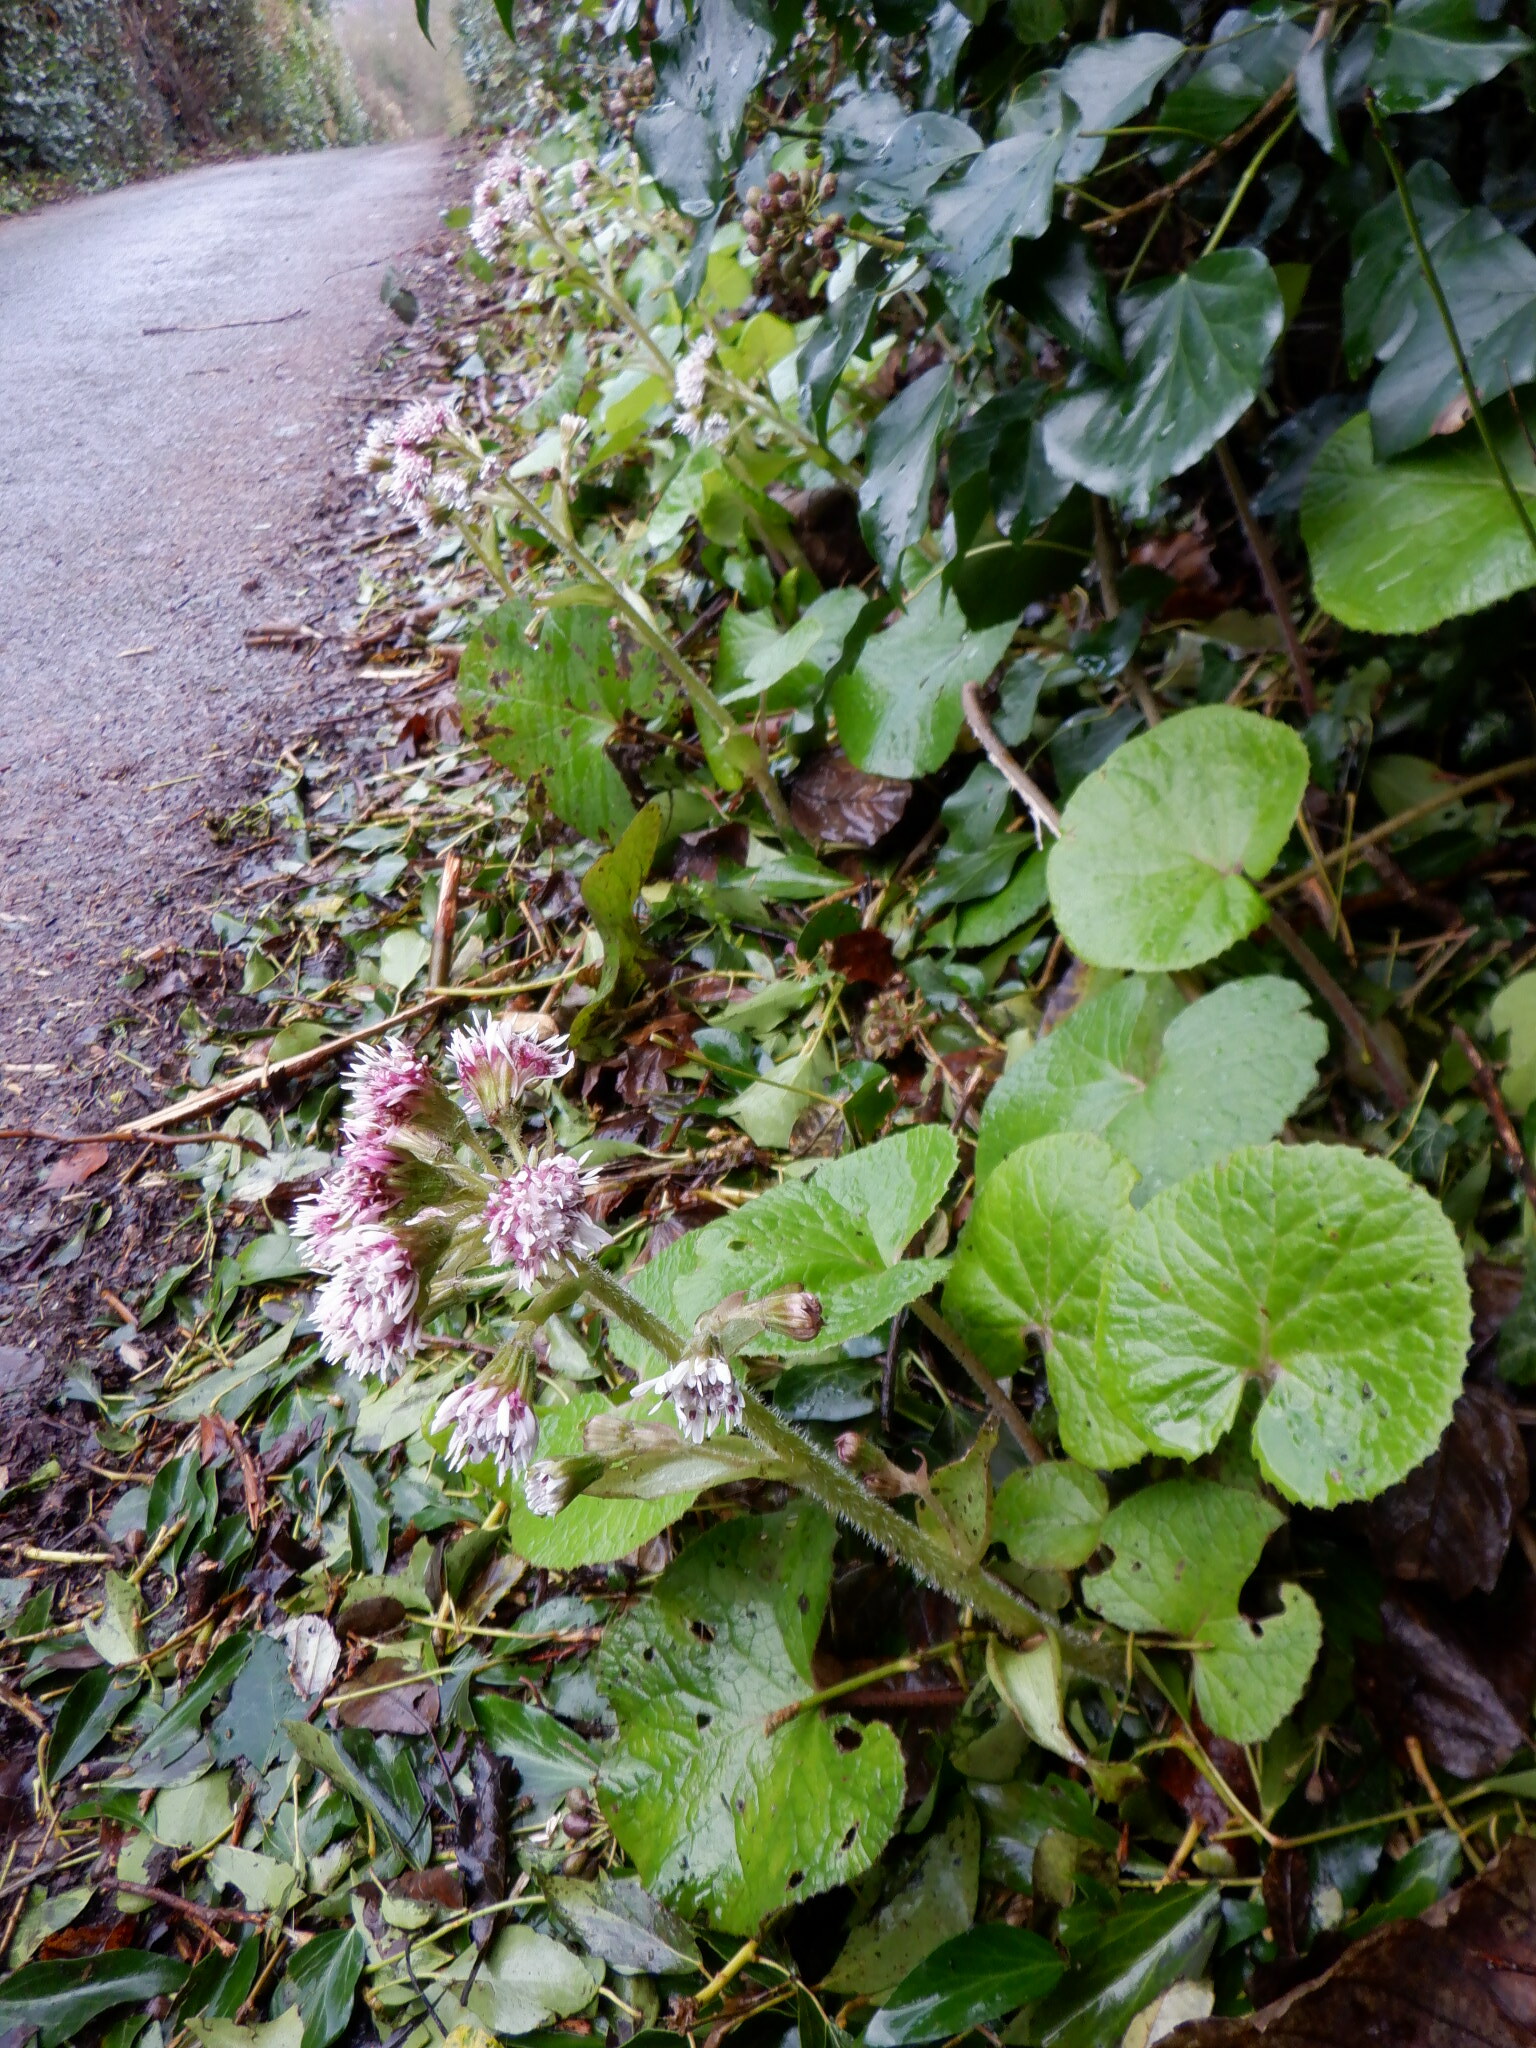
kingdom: Plantae
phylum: Tracheophyta
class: Magnoliopsida
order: Asterales
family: Asteraceae
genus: Petasites
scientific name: Petasites pyrenaicus
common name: Winter heliotrope
